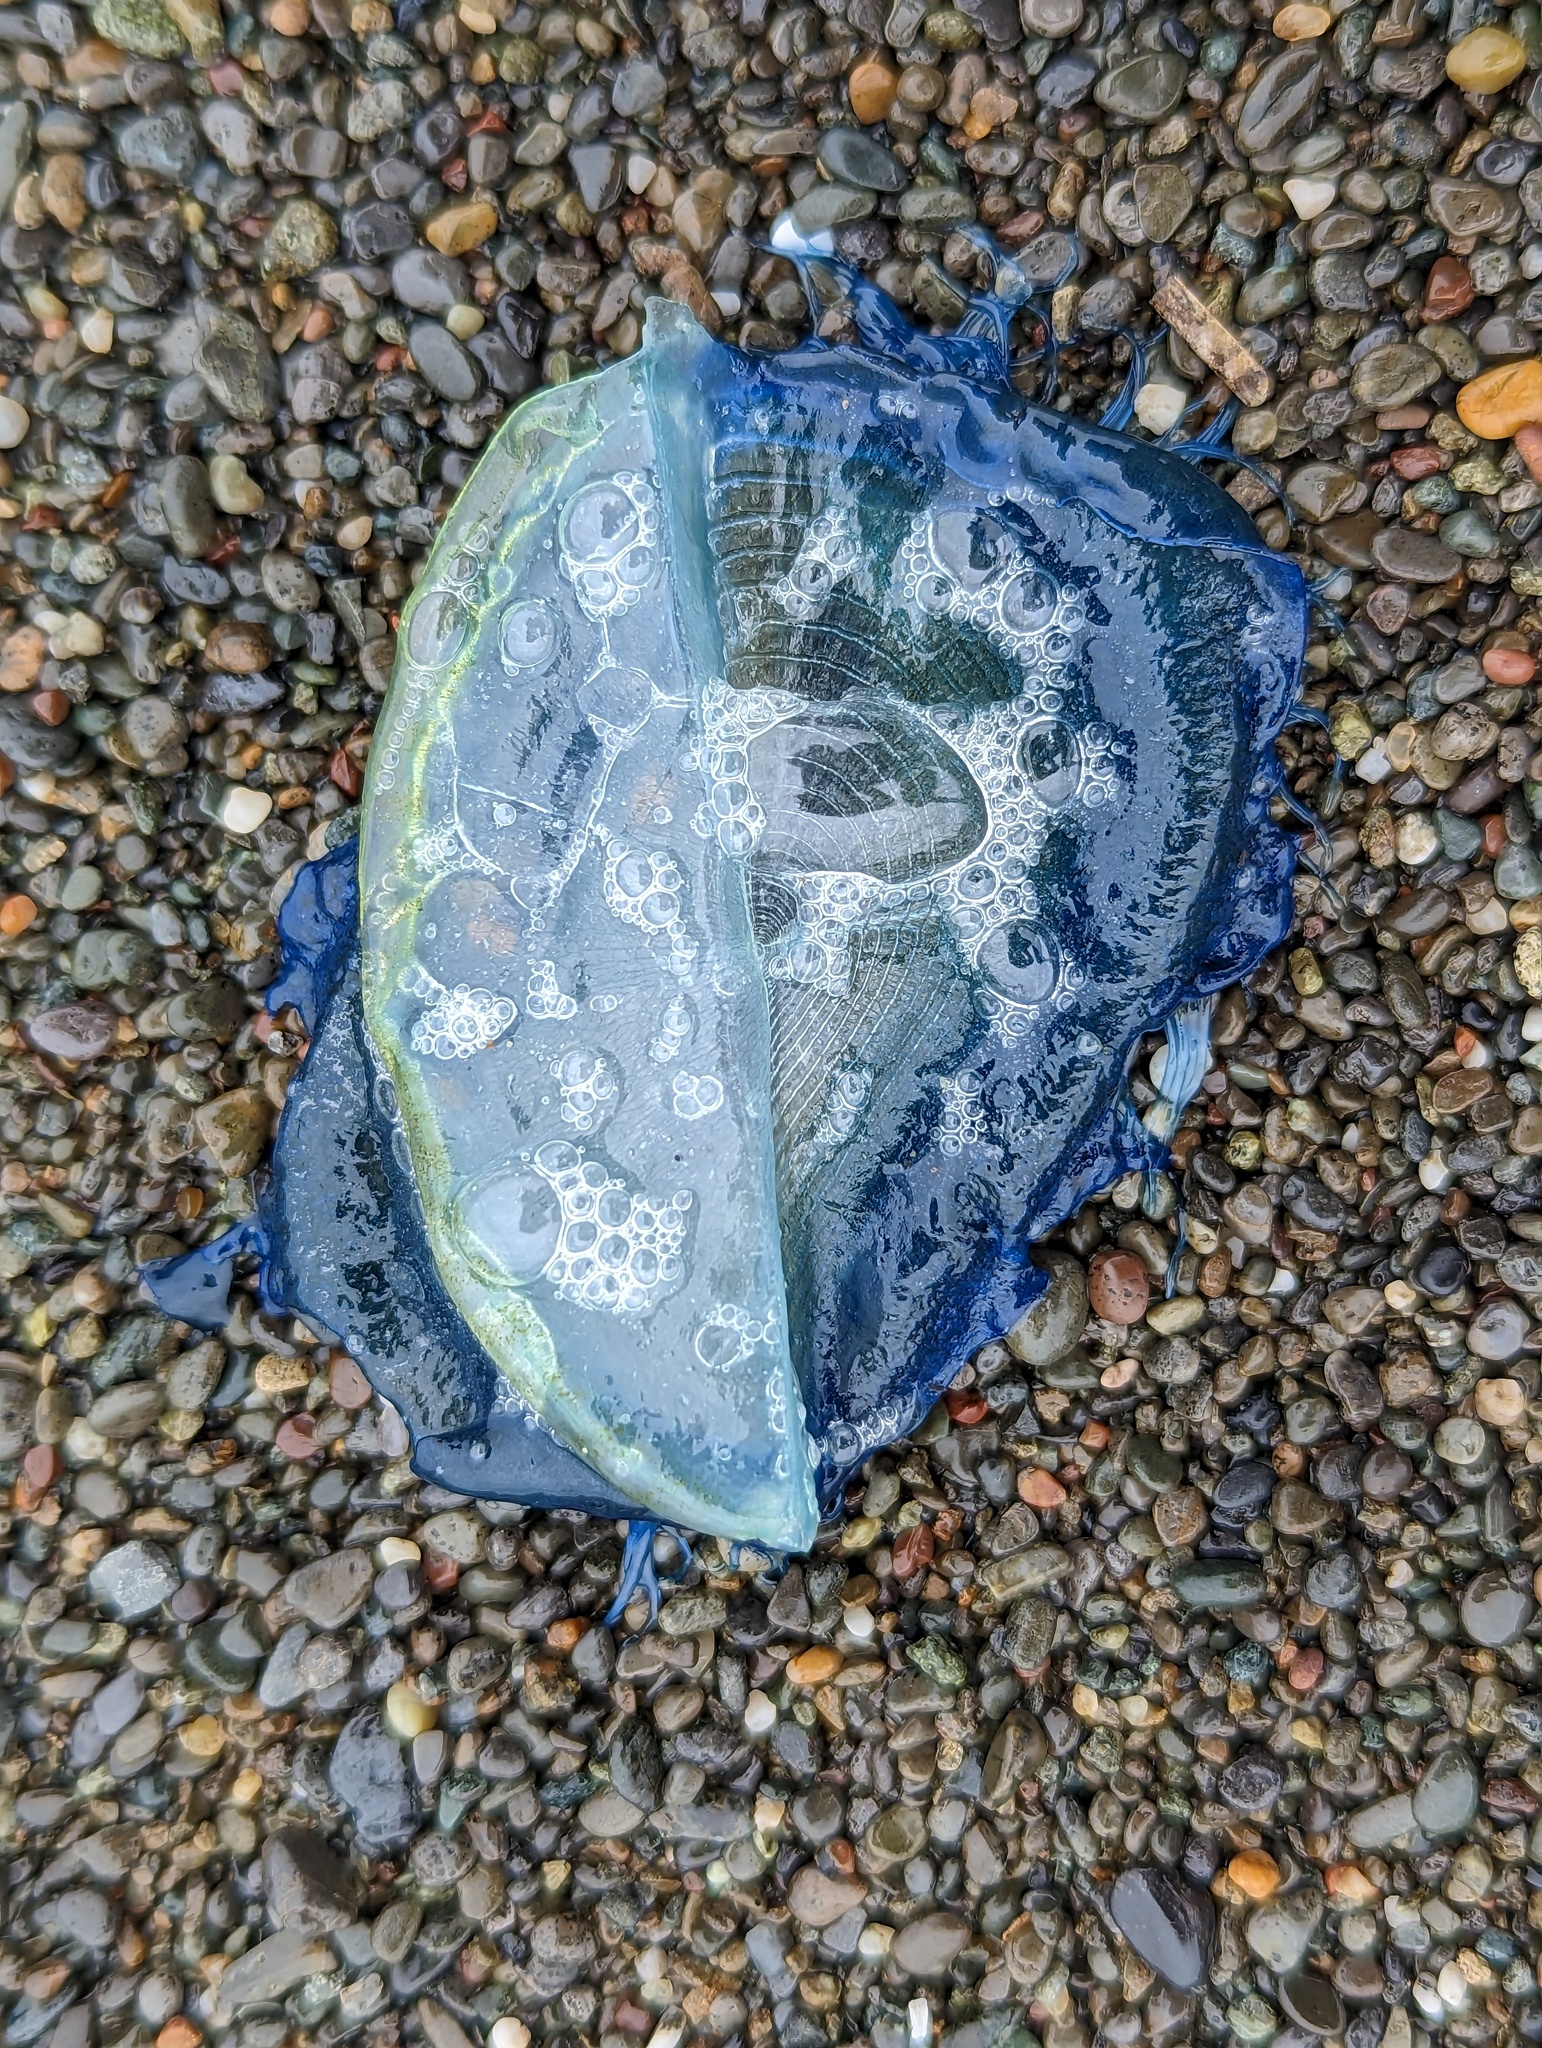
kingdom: Animalia
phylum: Cnidaria
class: Hydrozoa
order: Anthoathecata
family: Porpitidae
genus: Velella
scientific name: Velella velella
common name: By-the-wind-sailor
